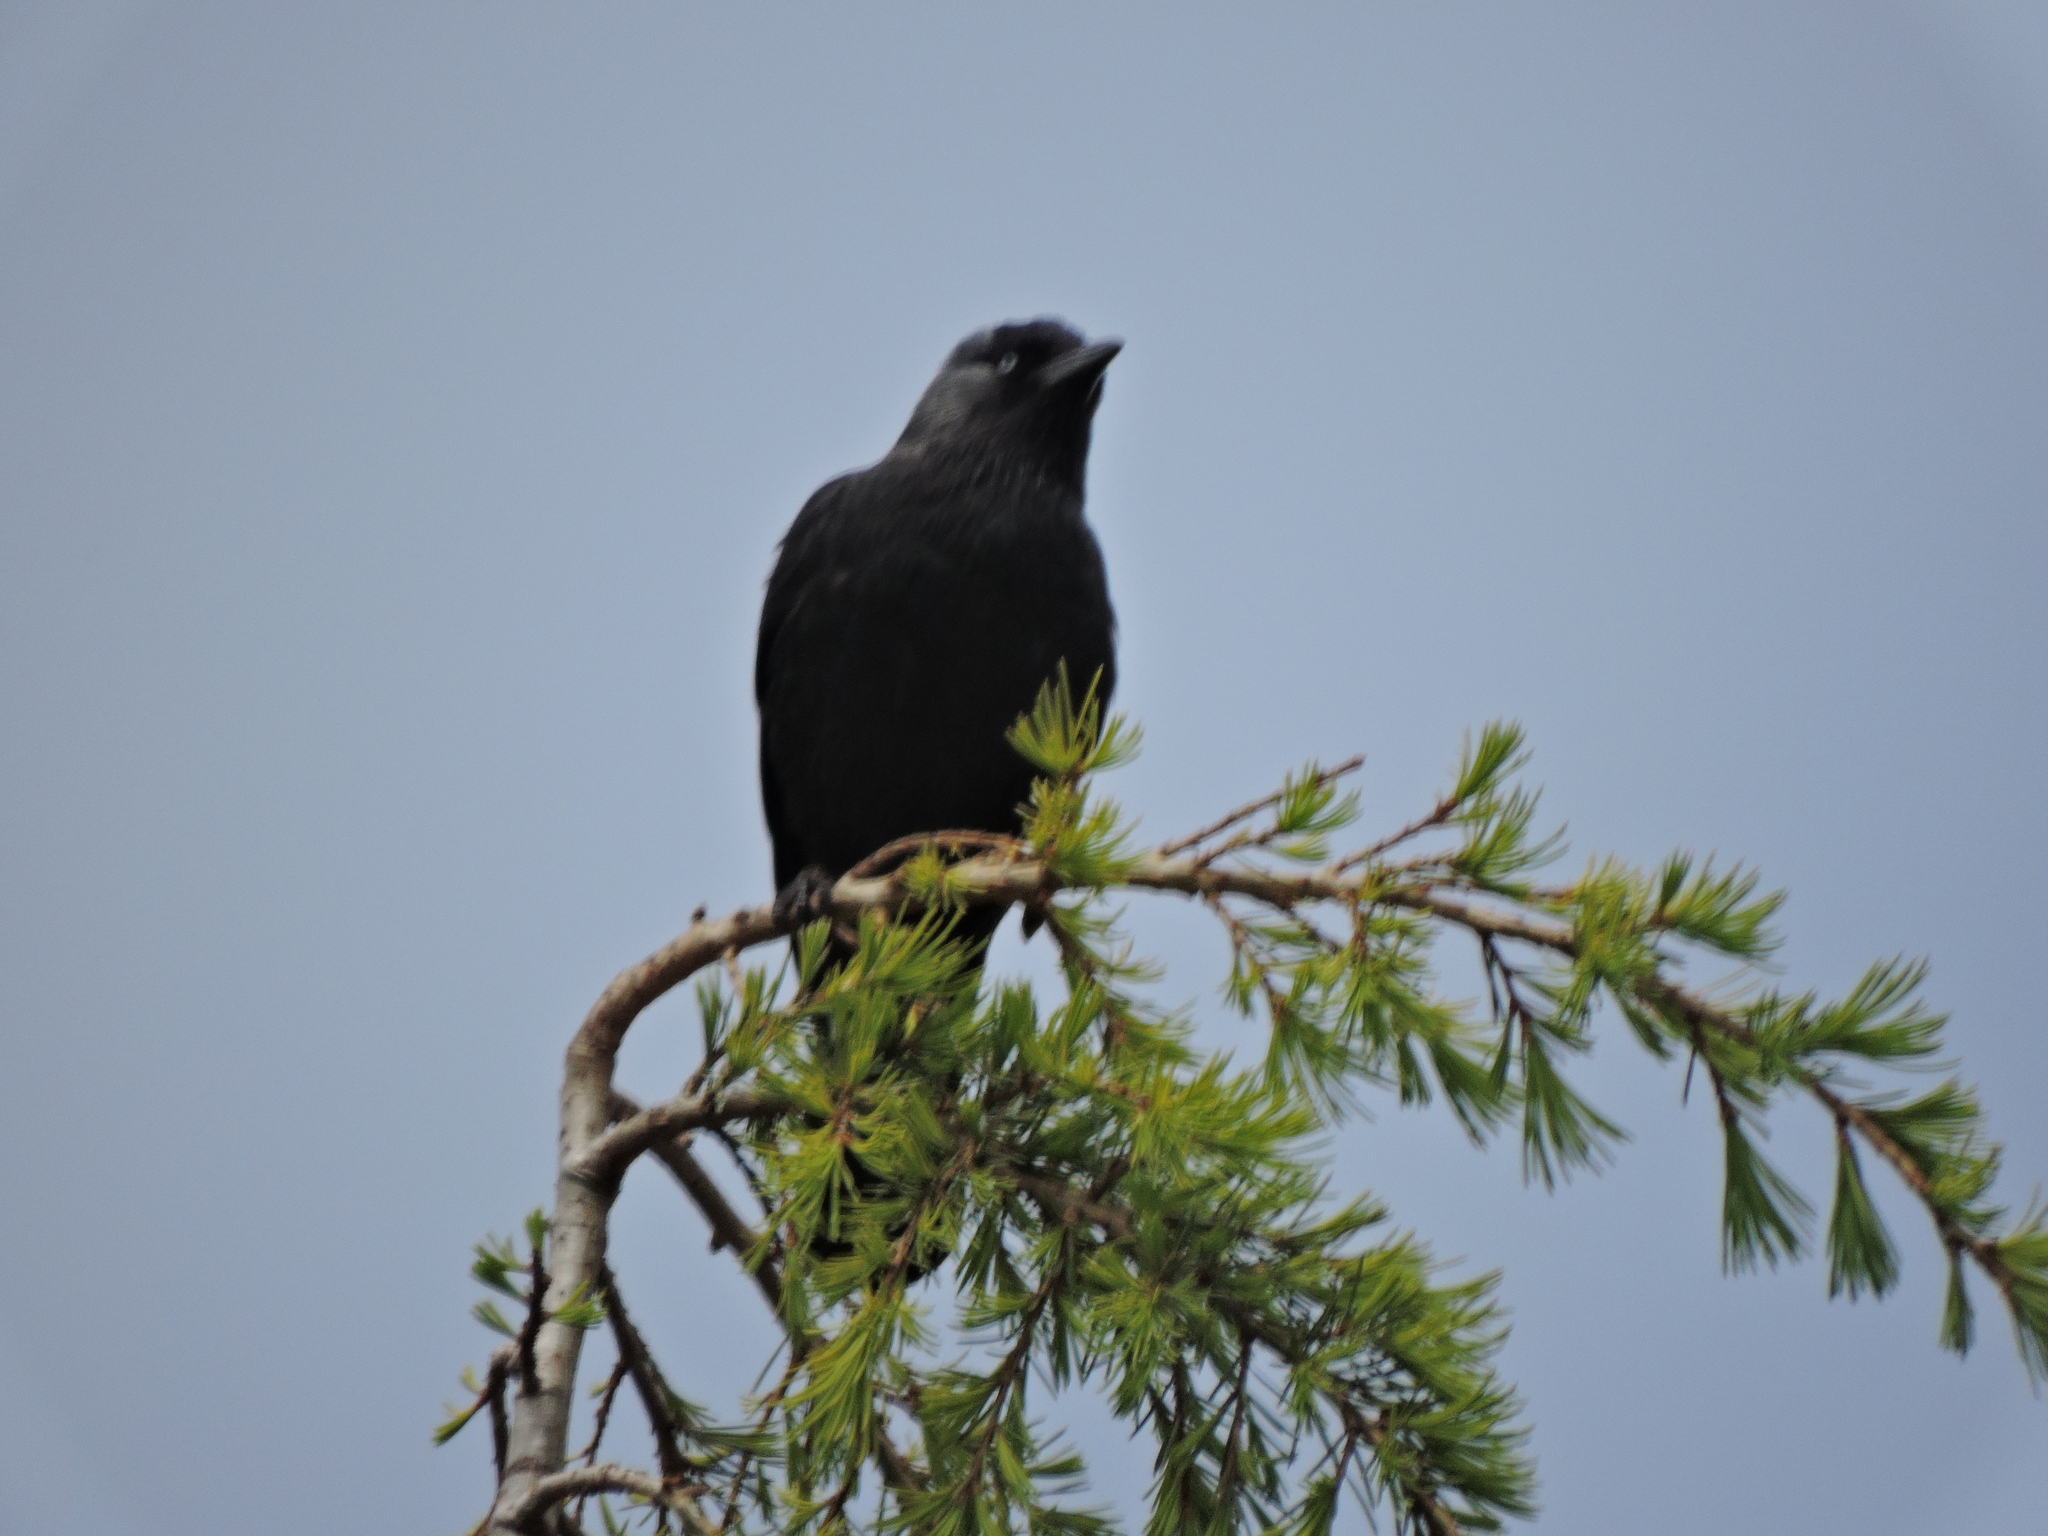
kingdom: Animalia
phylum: Chordata
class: Aves
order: Passeriformes
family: Corvidae
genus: Coloeus
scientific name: Coloeus monedula
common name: Western jackdaw
